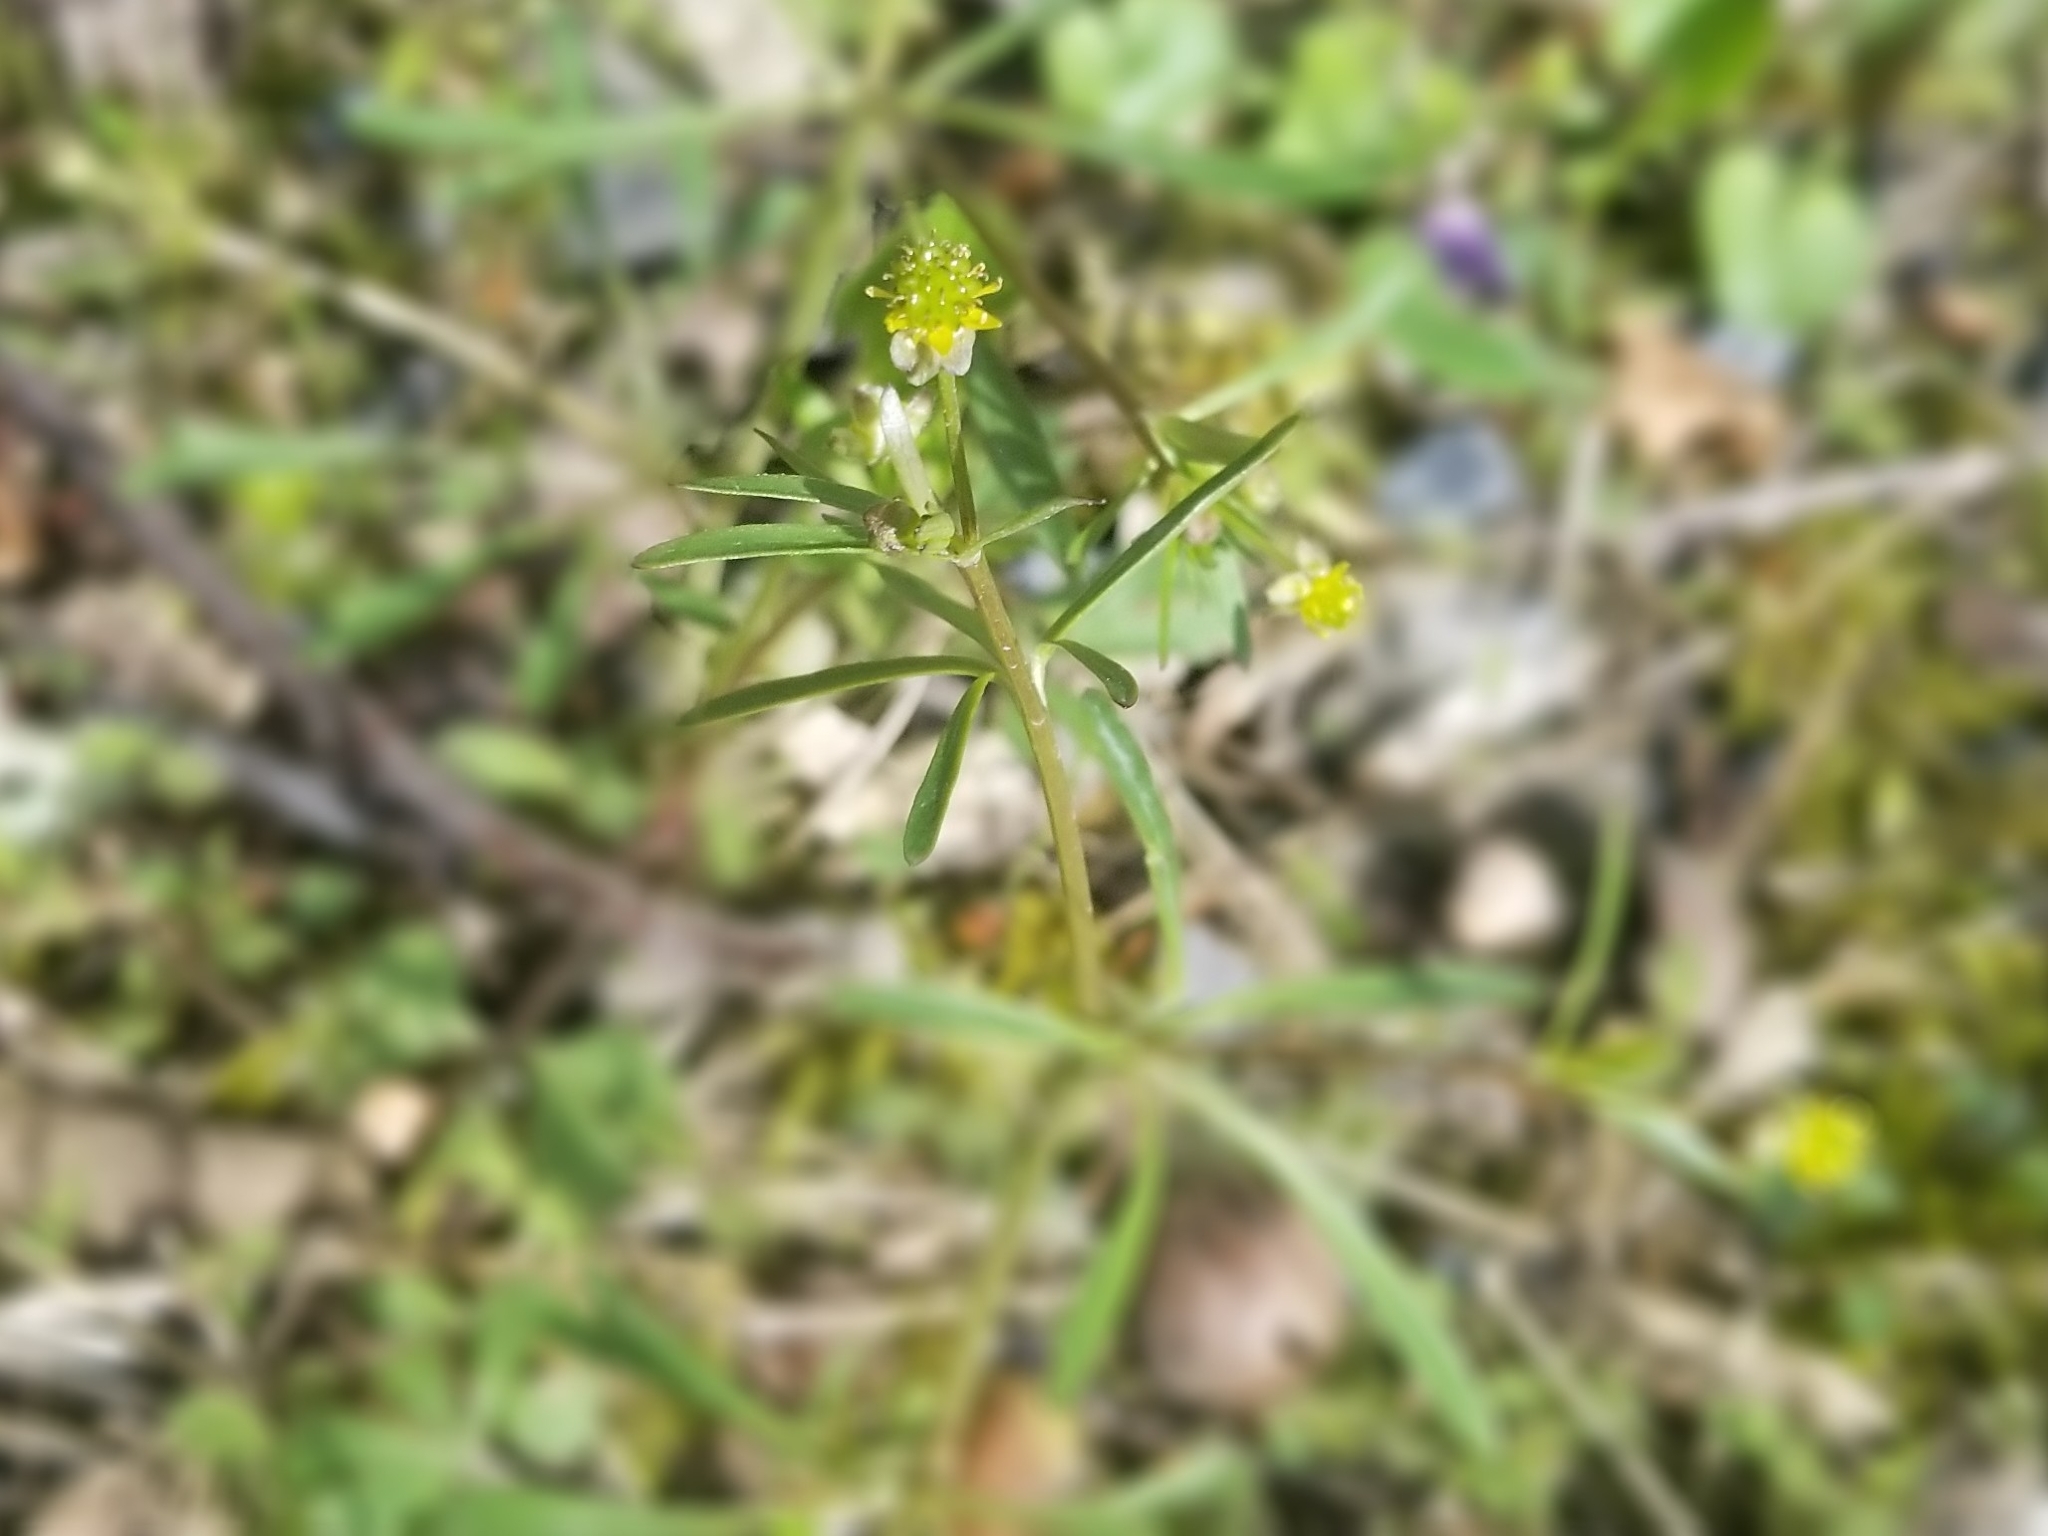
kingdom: Plantae
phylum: Tracheophyta
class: Magnoliopsida
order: Ranunculales
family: Ranunculaceae
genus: Ranunculus
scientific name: Ranunculus allegheniensis
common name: Allegheny mountain buttercup
